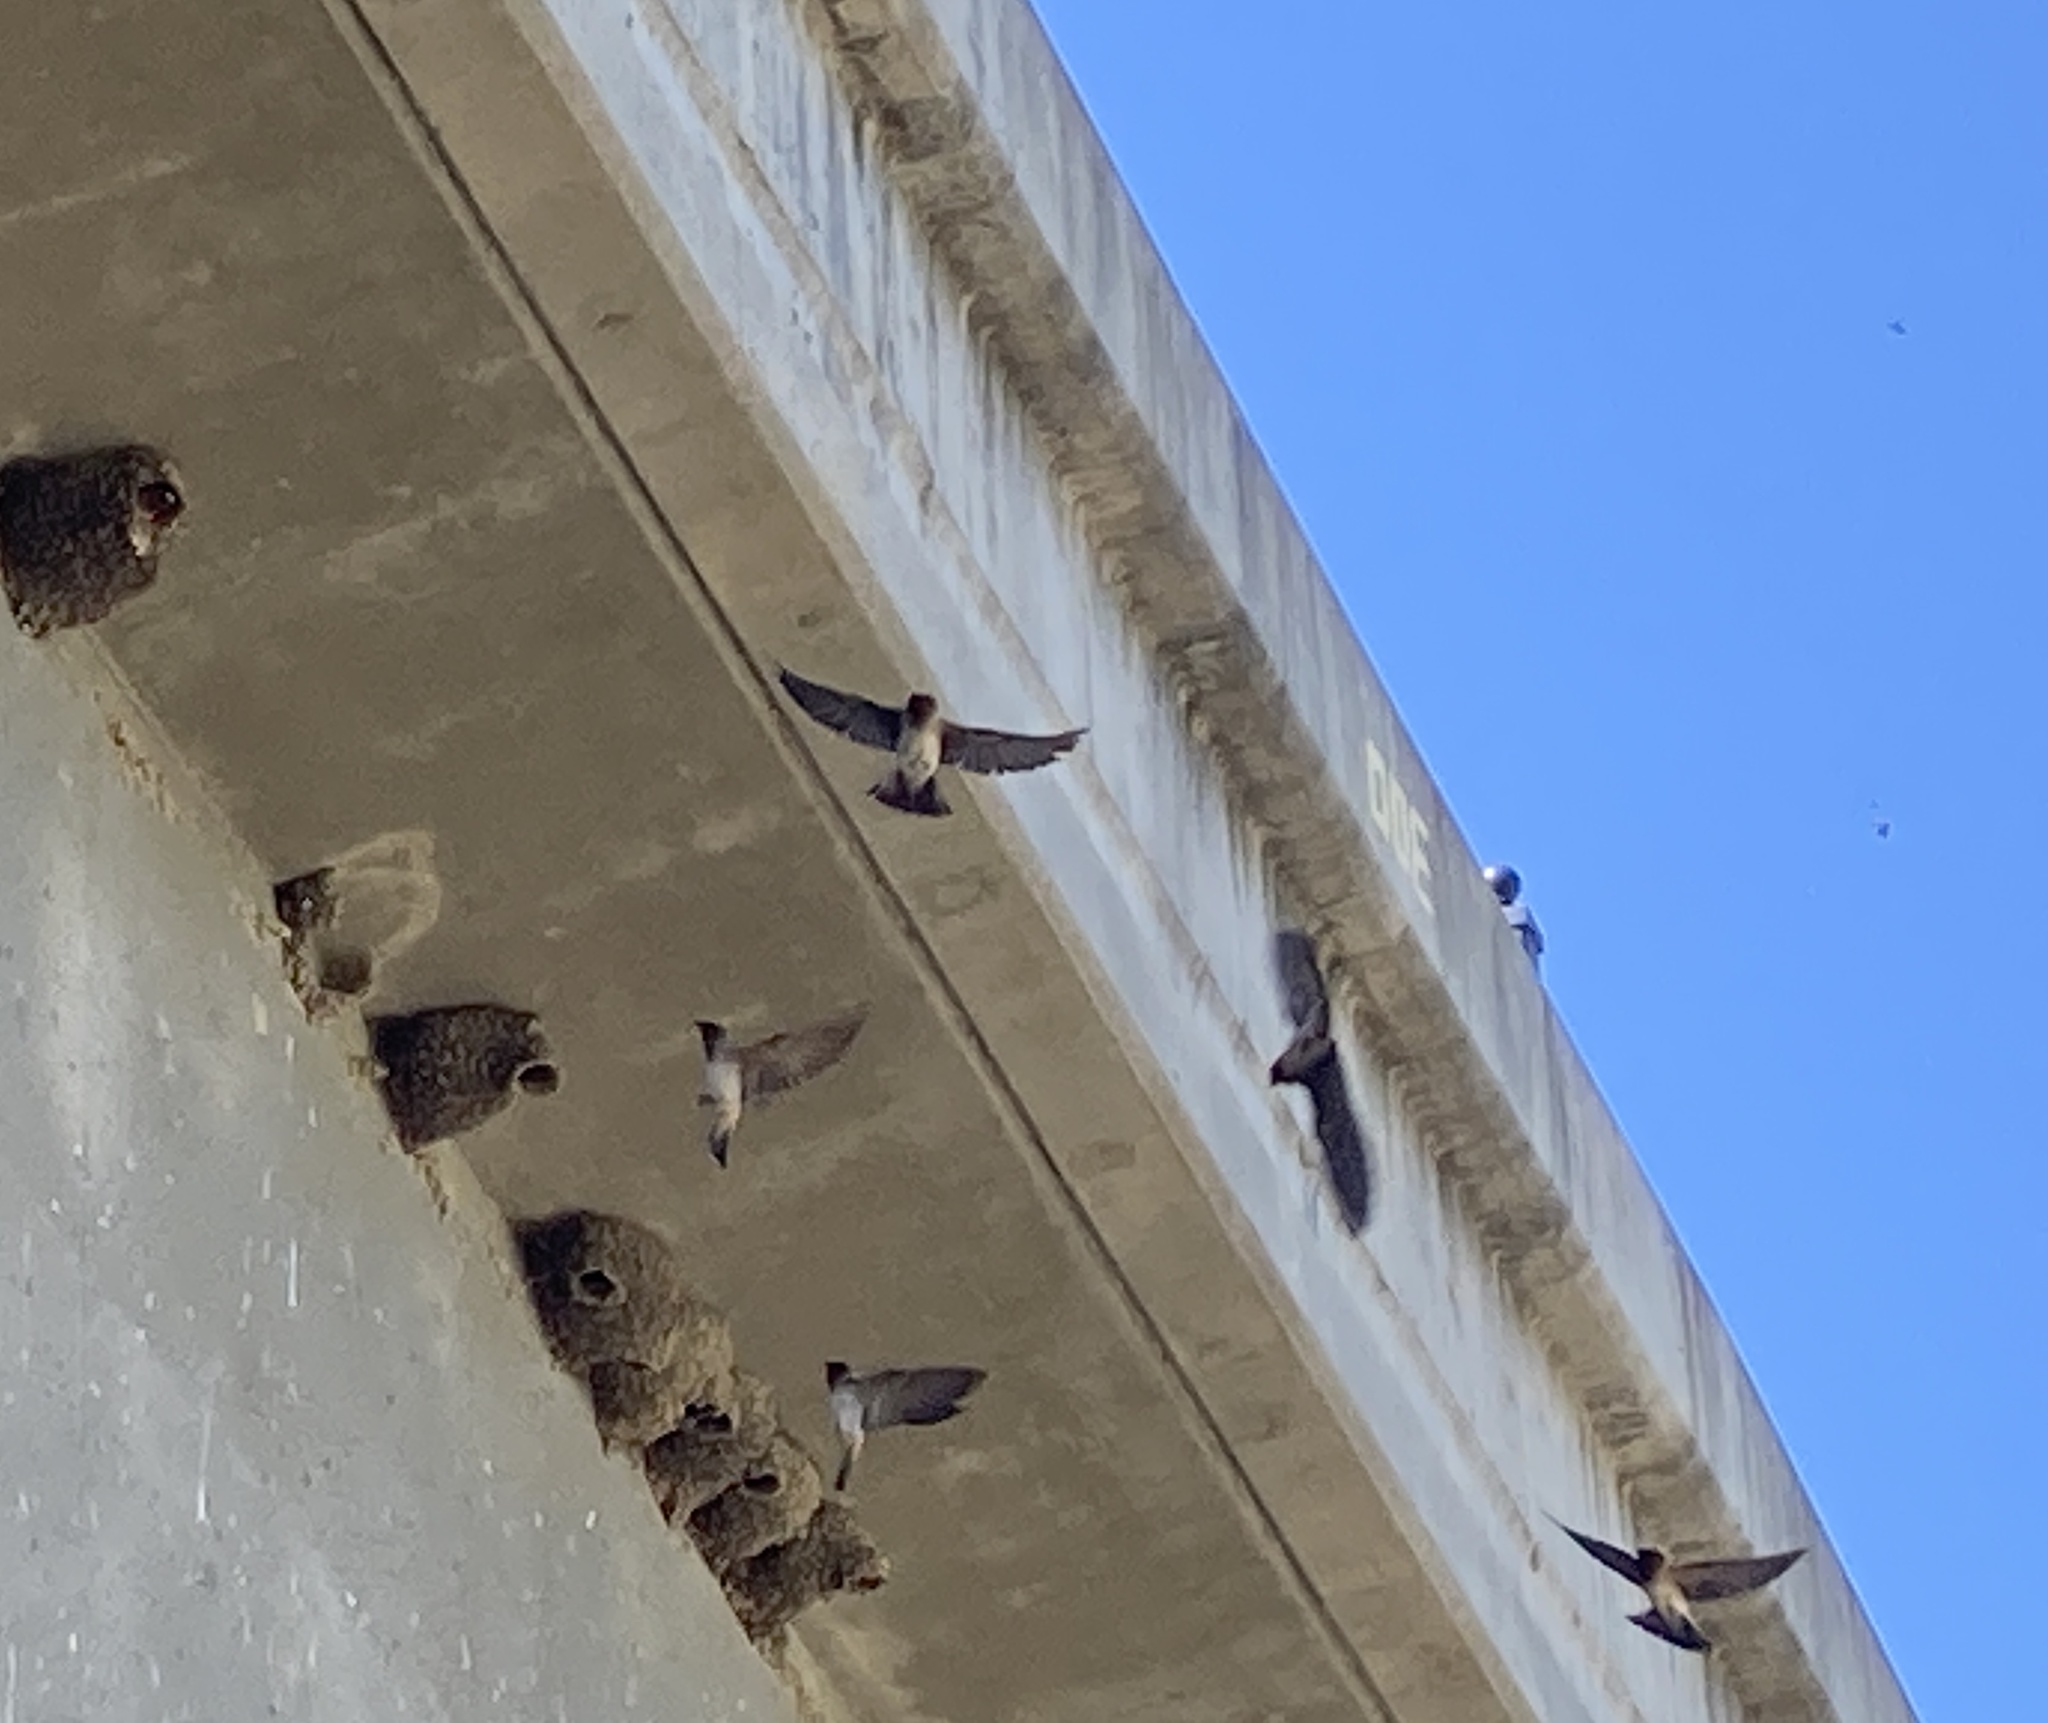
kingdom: Animalia
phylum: Chordata
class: Aves
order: Passeriformes
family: Hirundinidae
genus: Petrochelidon
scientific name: Petrochelidon pyrrhonota
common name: American cliff swallow
